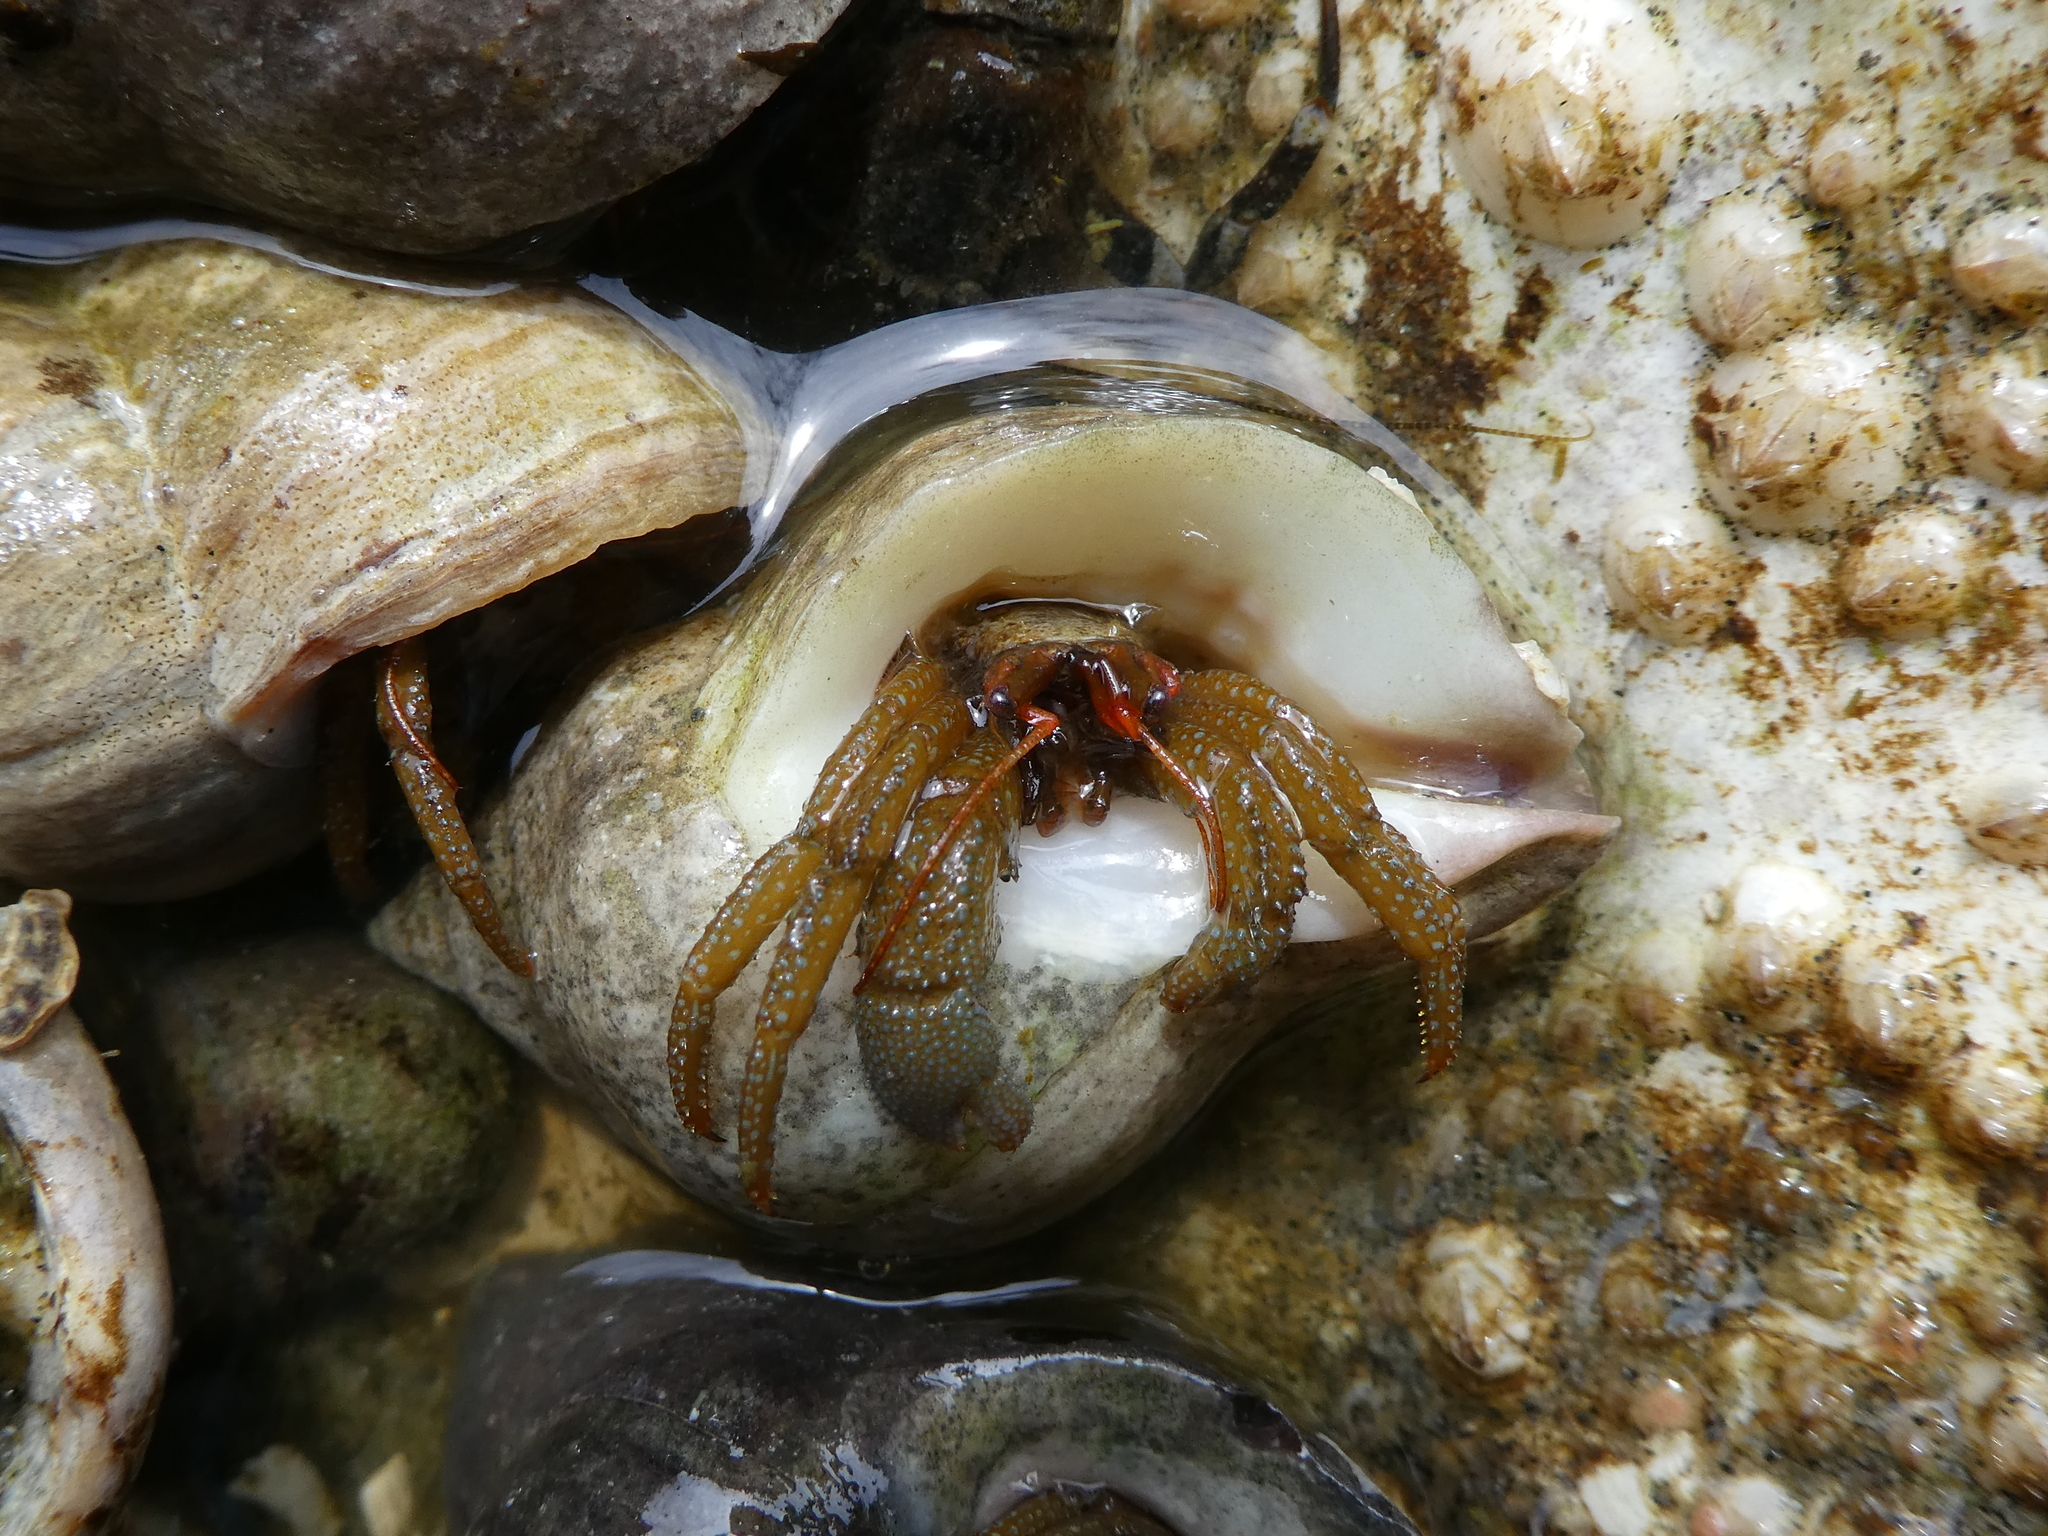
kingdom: Animalia
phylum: Arthropoda
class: Malacostraca
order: Decapoda
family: Paguridae
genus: Pagurus
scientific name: Pagurus granosimanus
